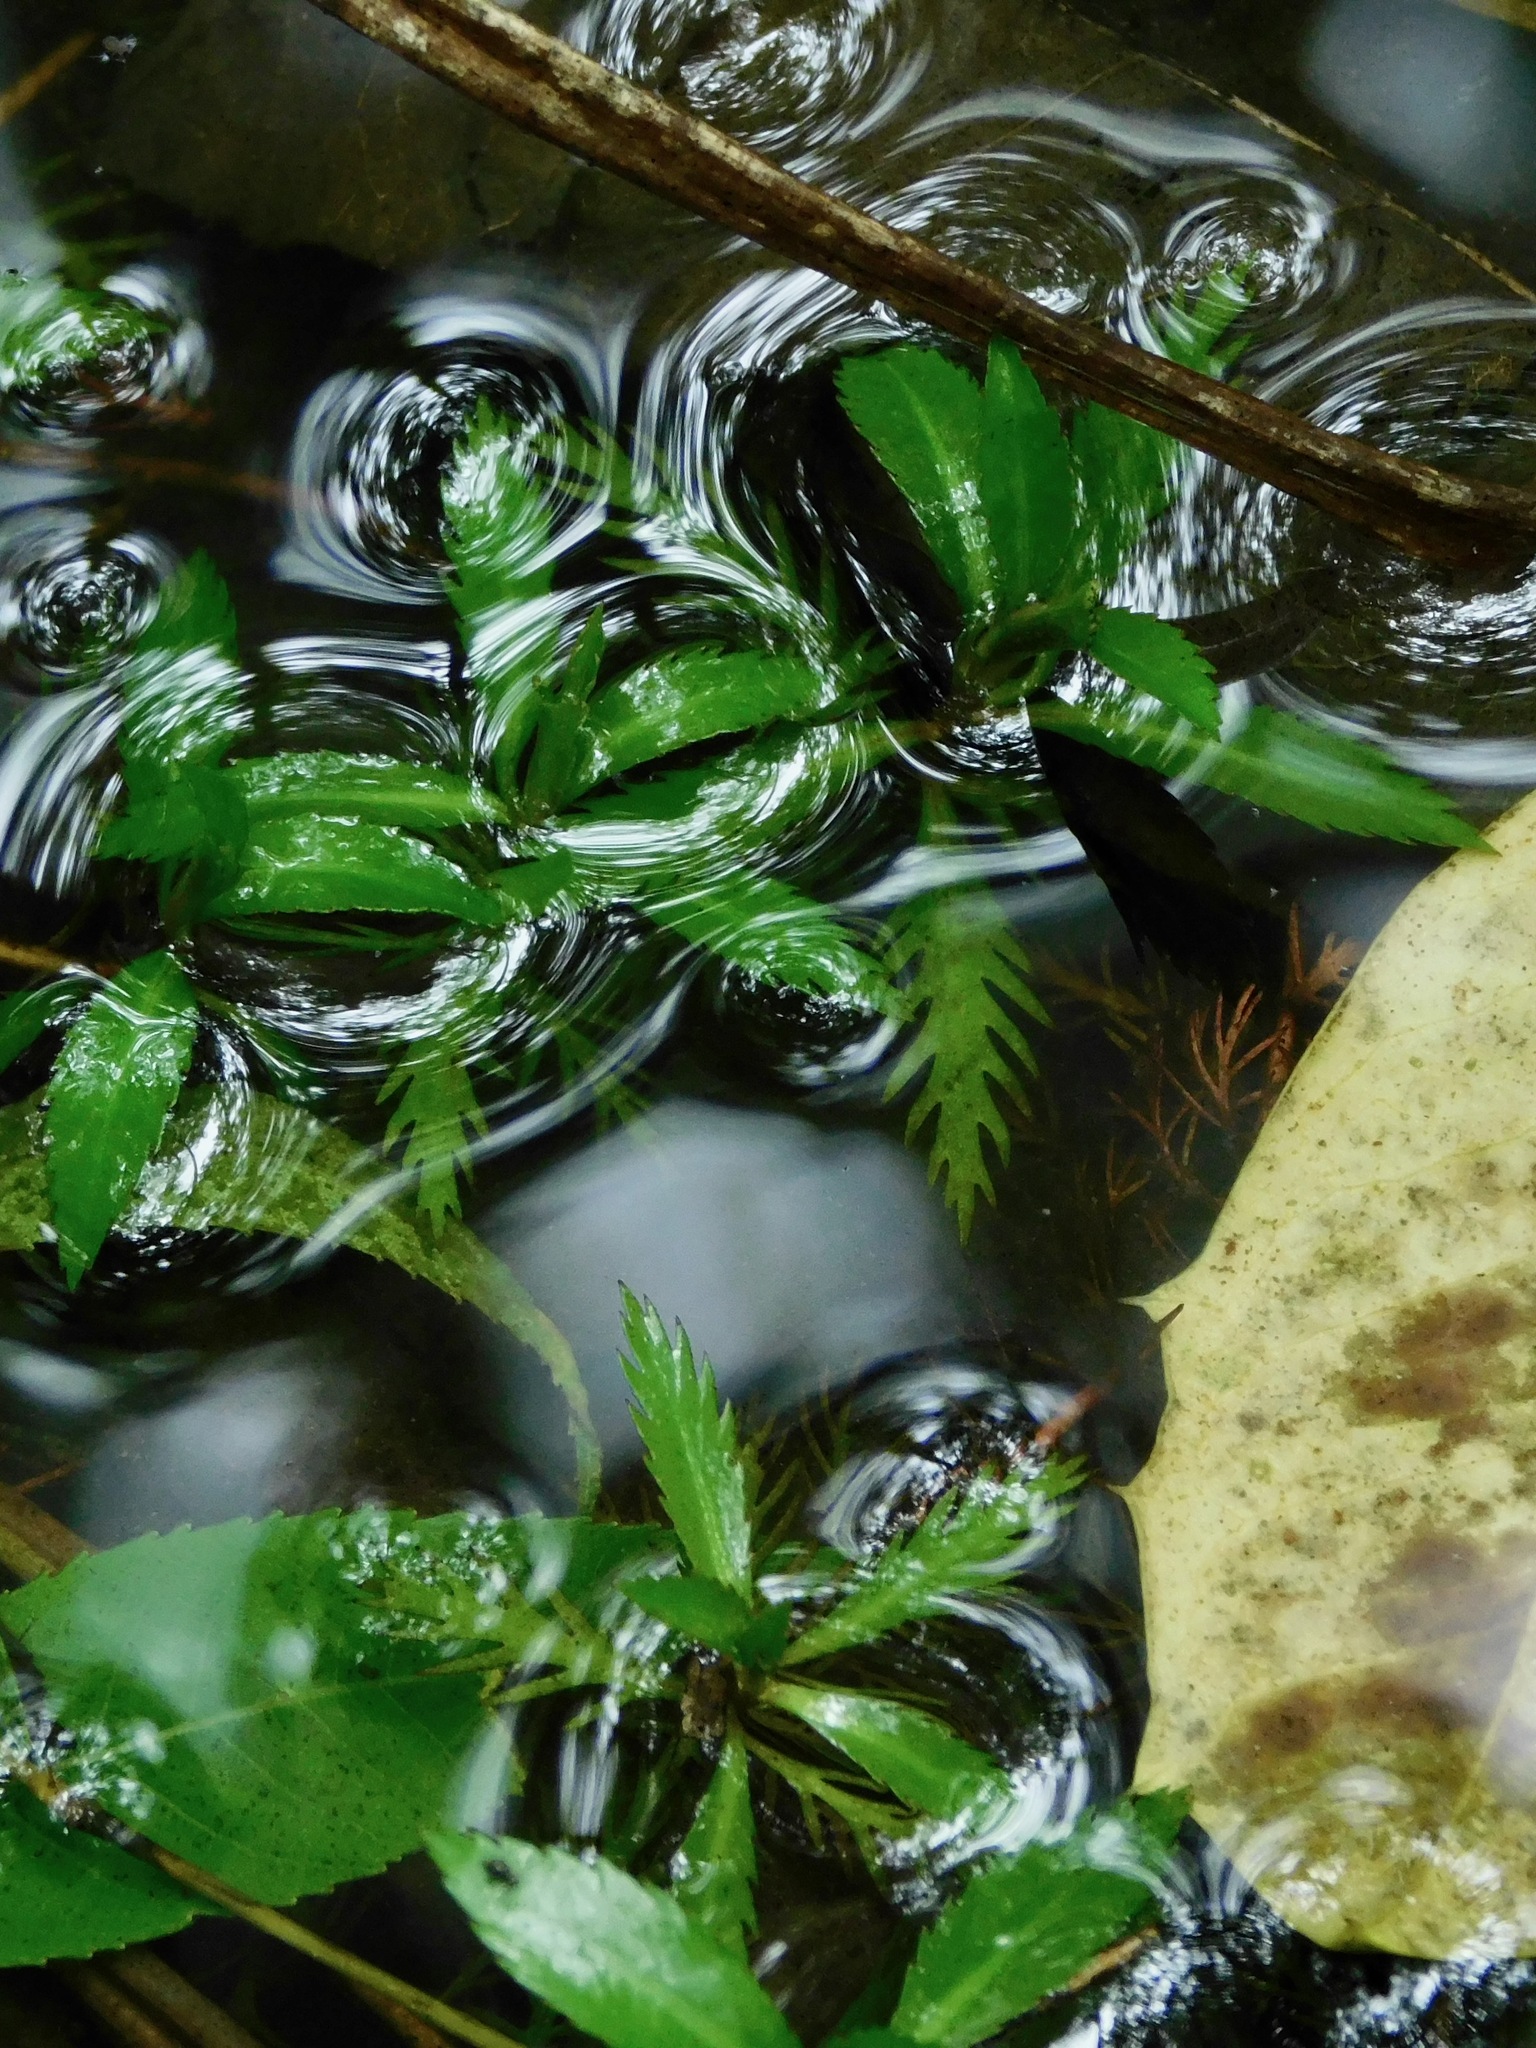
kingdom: Plantae
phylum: Tracheophyta
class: Magnoliopsida
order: Saxifragales
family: Haloragaceae
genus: Proserpinaca
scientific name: Proserpinaca palustris
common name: Marsh mermaidweed
